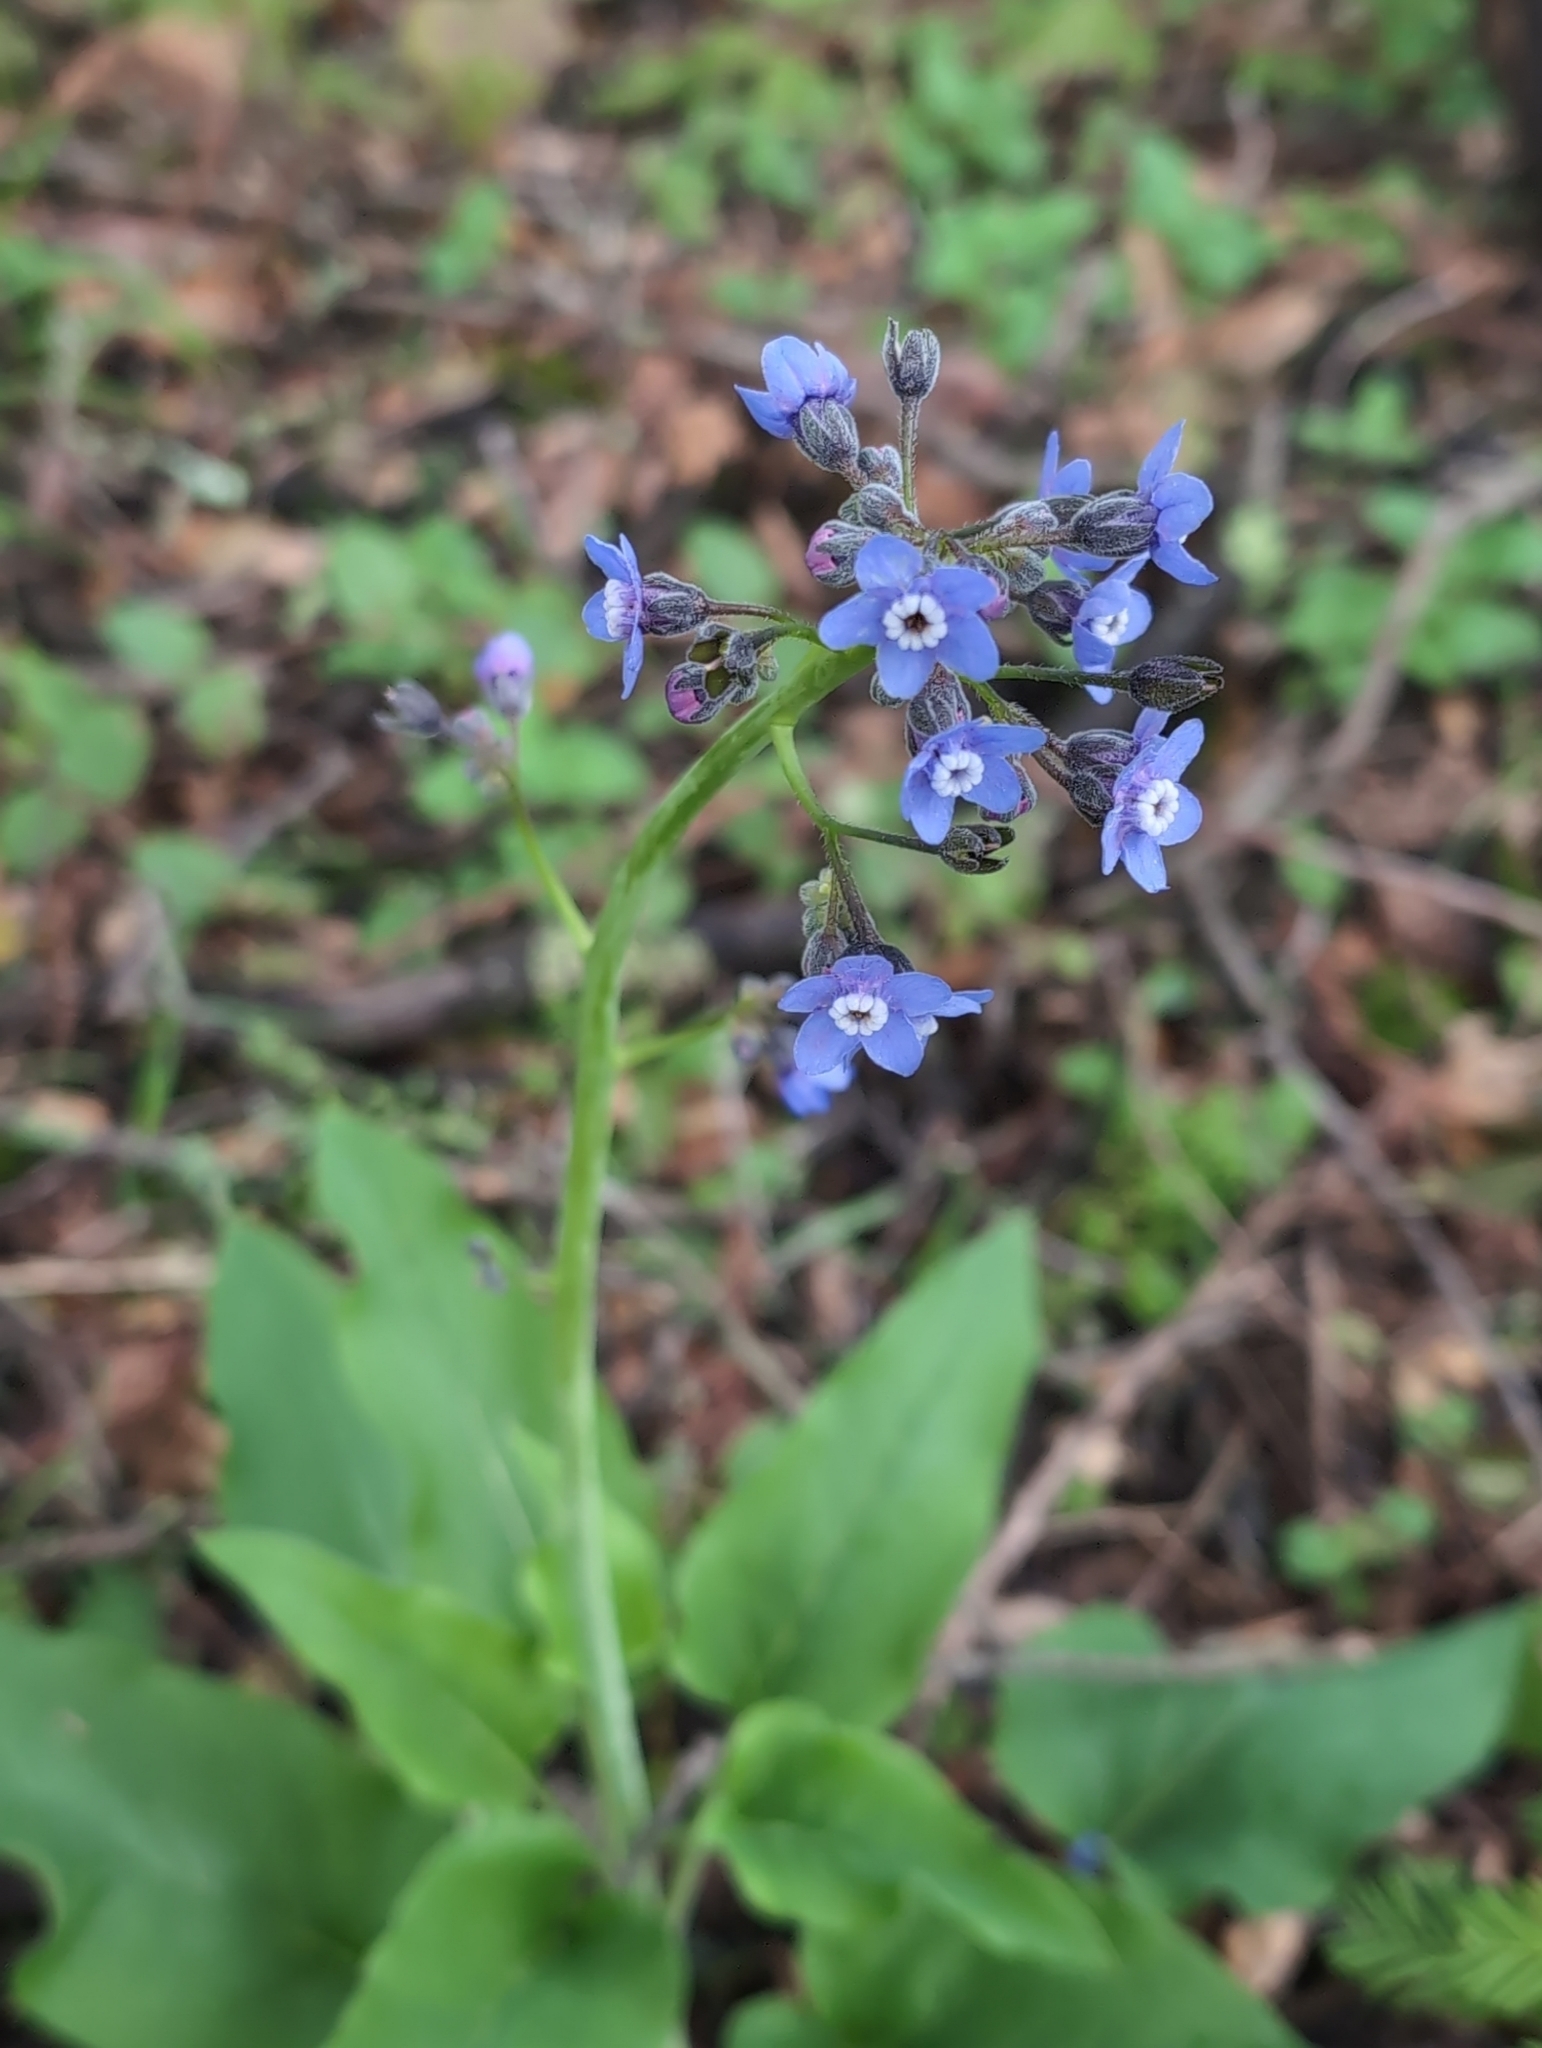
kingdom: Plantae
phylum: Tracheophyta
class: Magnoliopsida
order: Boraginales
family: Boraginaceae
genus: Adelinia
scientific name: Adelinia grande
